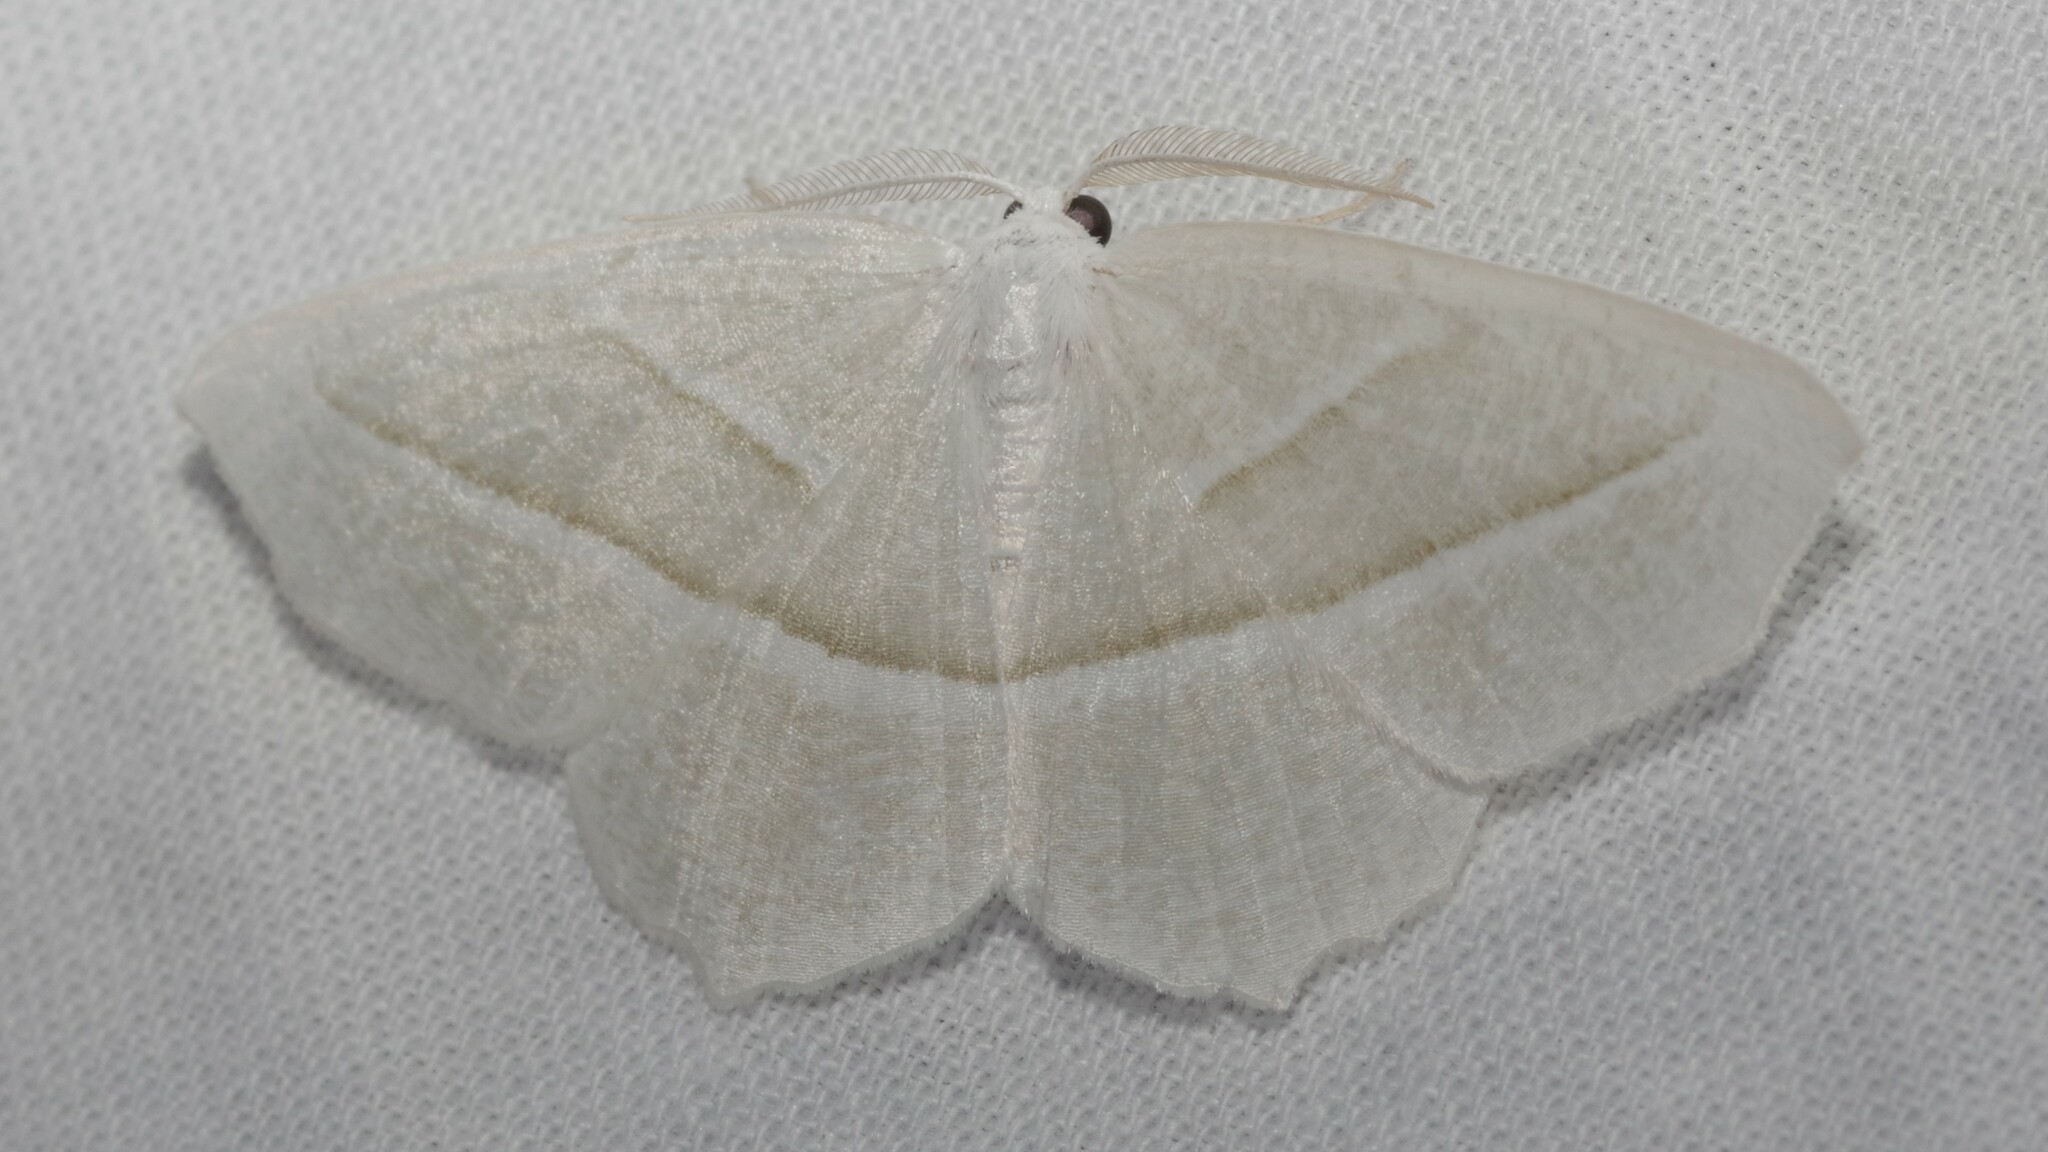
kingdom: Animalia
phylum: Arthropoda
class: Insecta
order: Lepidoptera
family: Geometridae
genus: Campaea
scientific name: Campaea perlata
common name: Fringed looper
